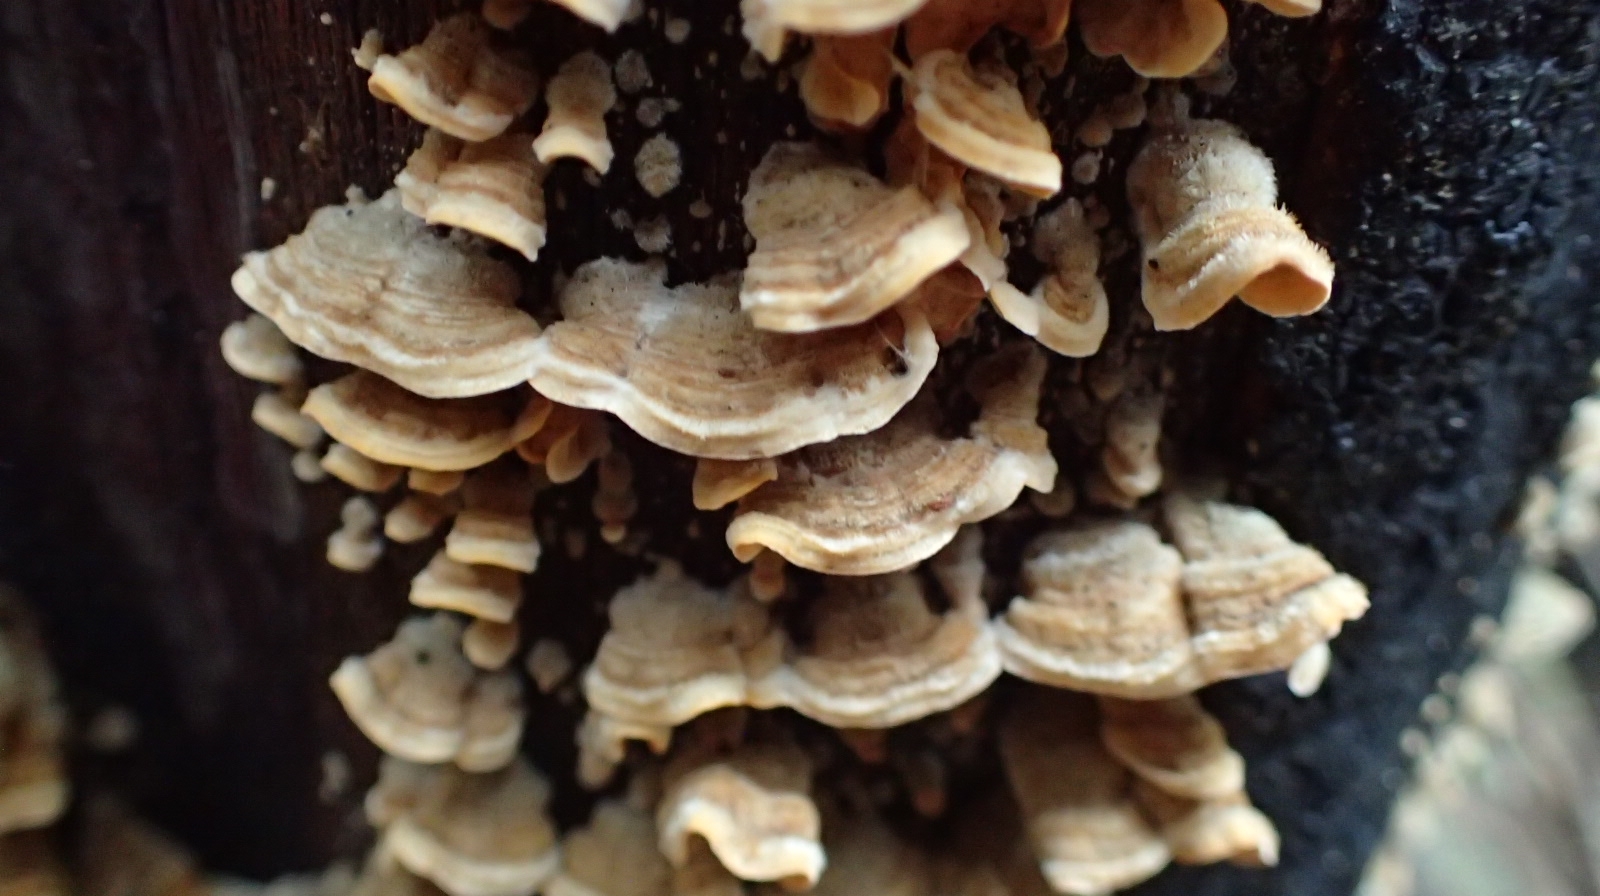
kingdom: Fungi
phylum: Basidiomycota
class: Agaricomycetes
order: Russulales
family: Stereaceae
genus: Stereum
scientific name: Stereum hirsutum
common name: Hairy curtain crust
